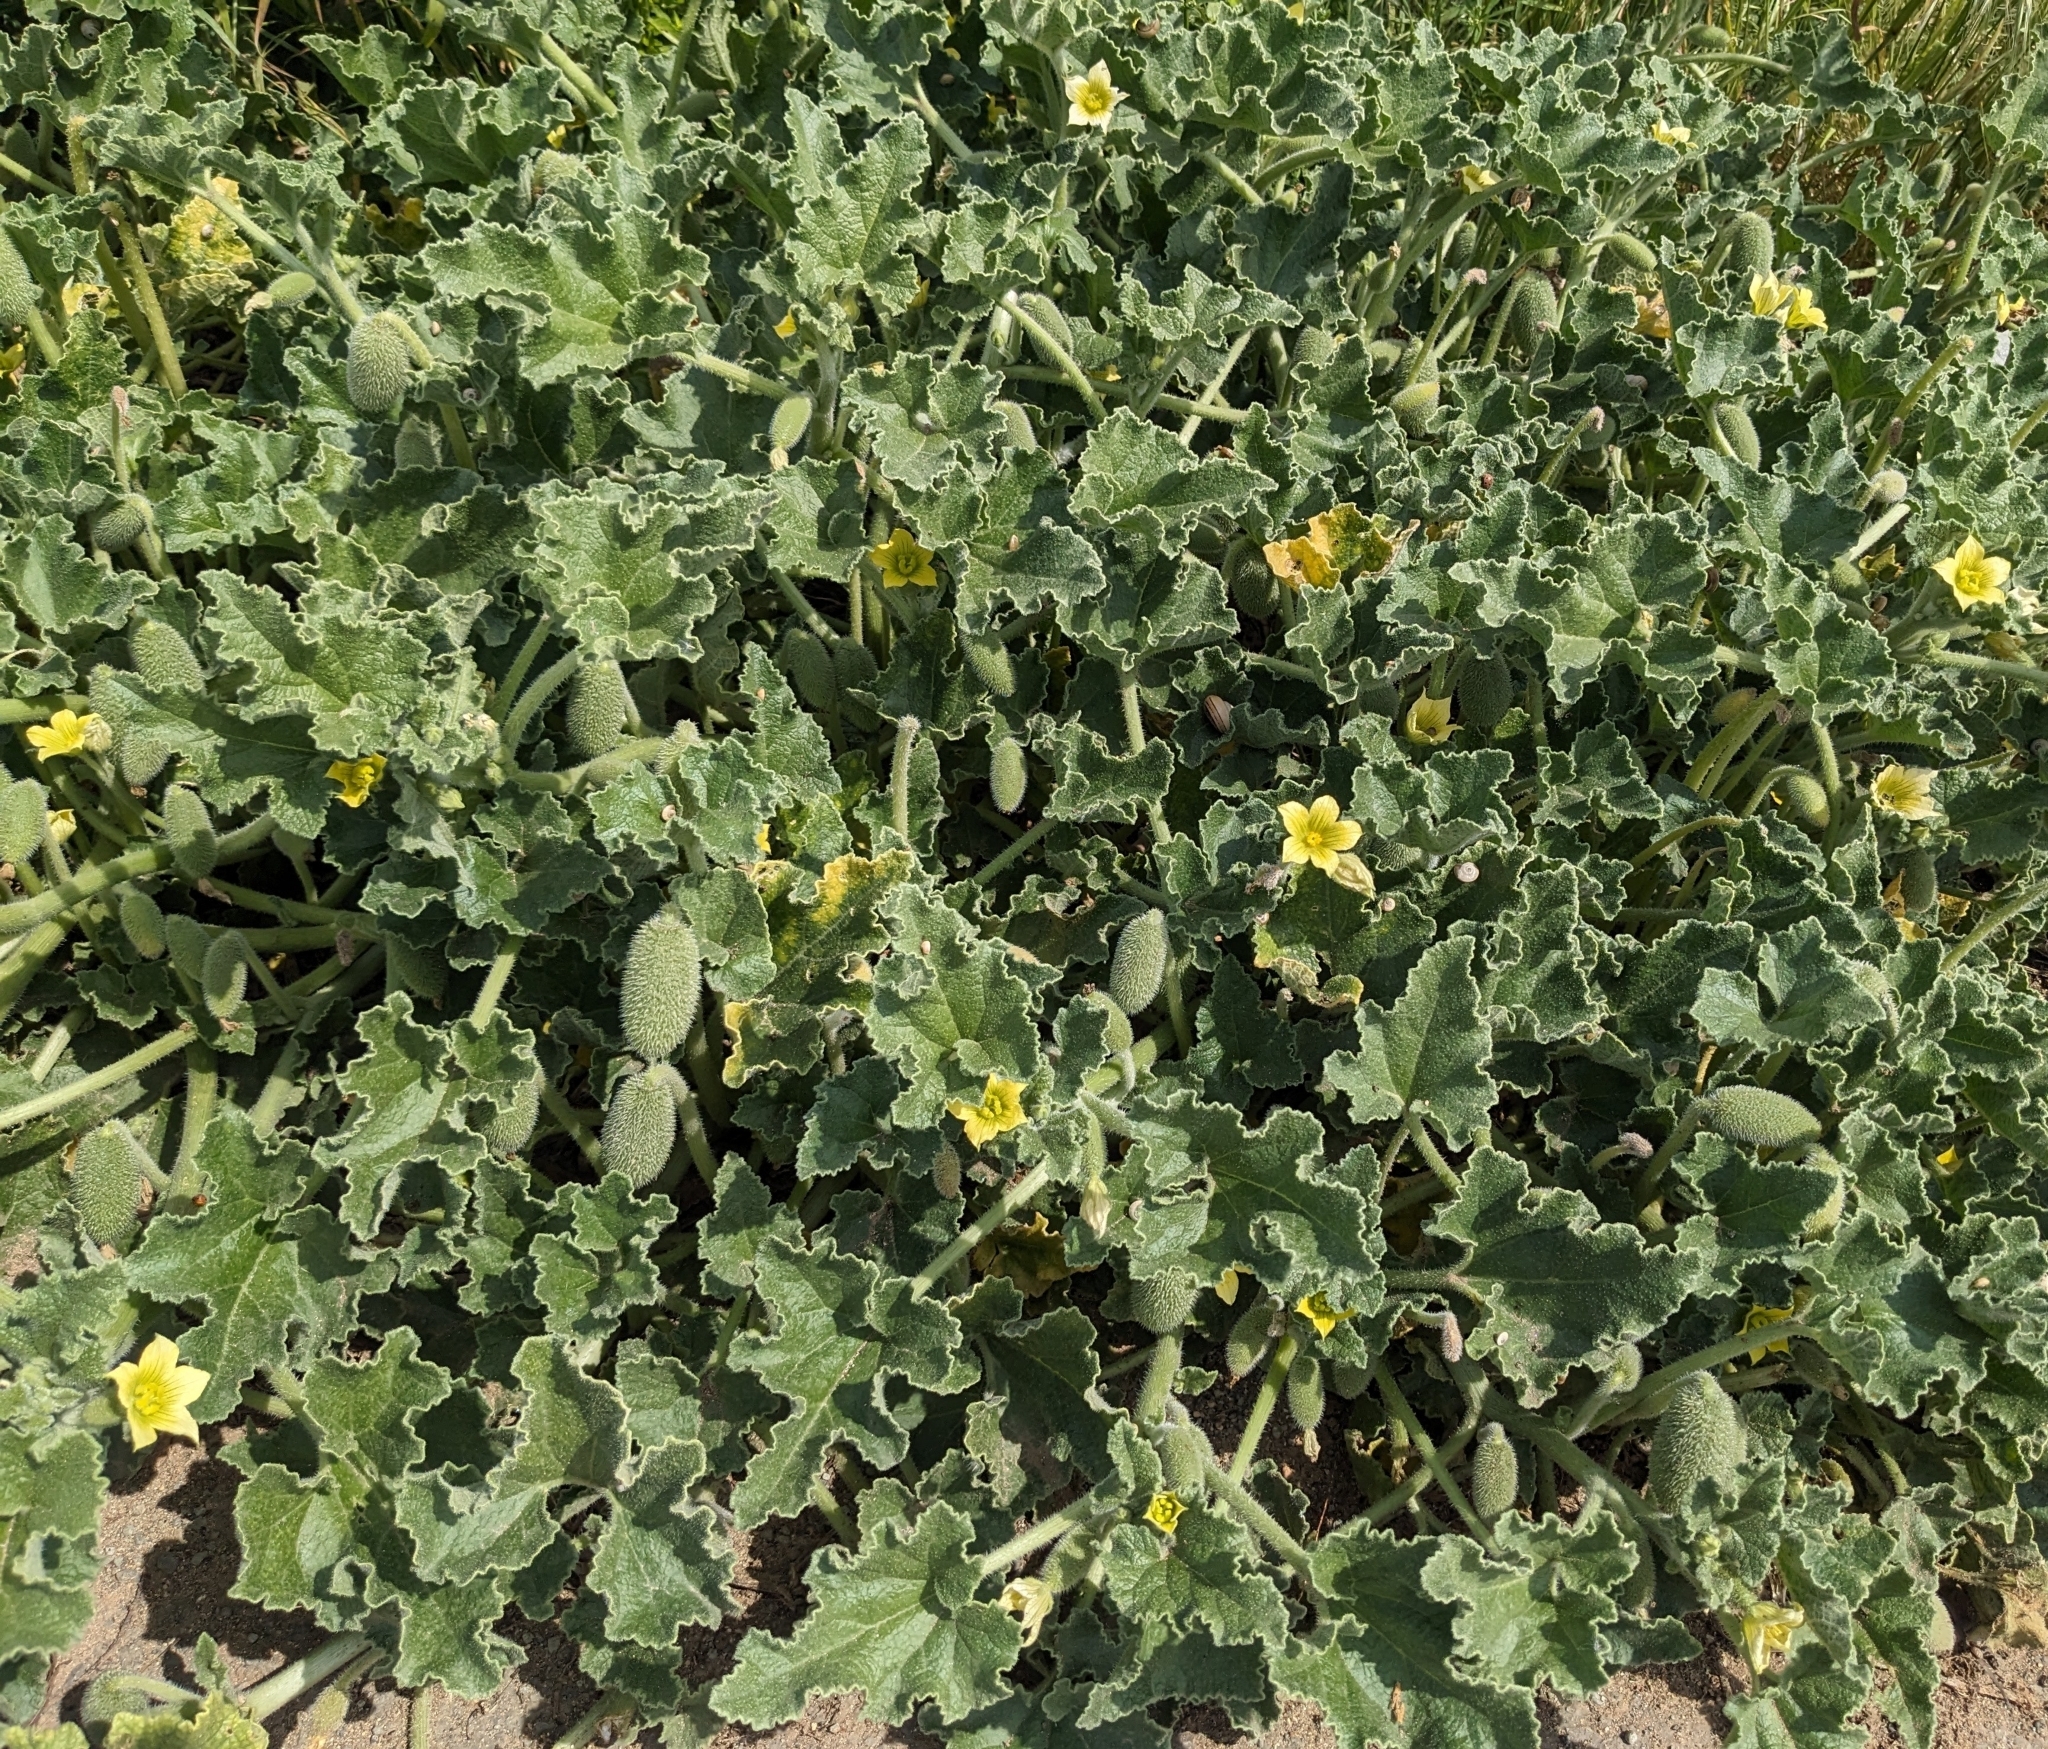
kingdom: Plantae
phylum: Tracheophyta
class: Magnoliopsida
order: Cucurbitales
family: Cucurbitaceae
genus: Ecballium
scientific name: Ecballium elaterium
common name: Squirting cucumber
